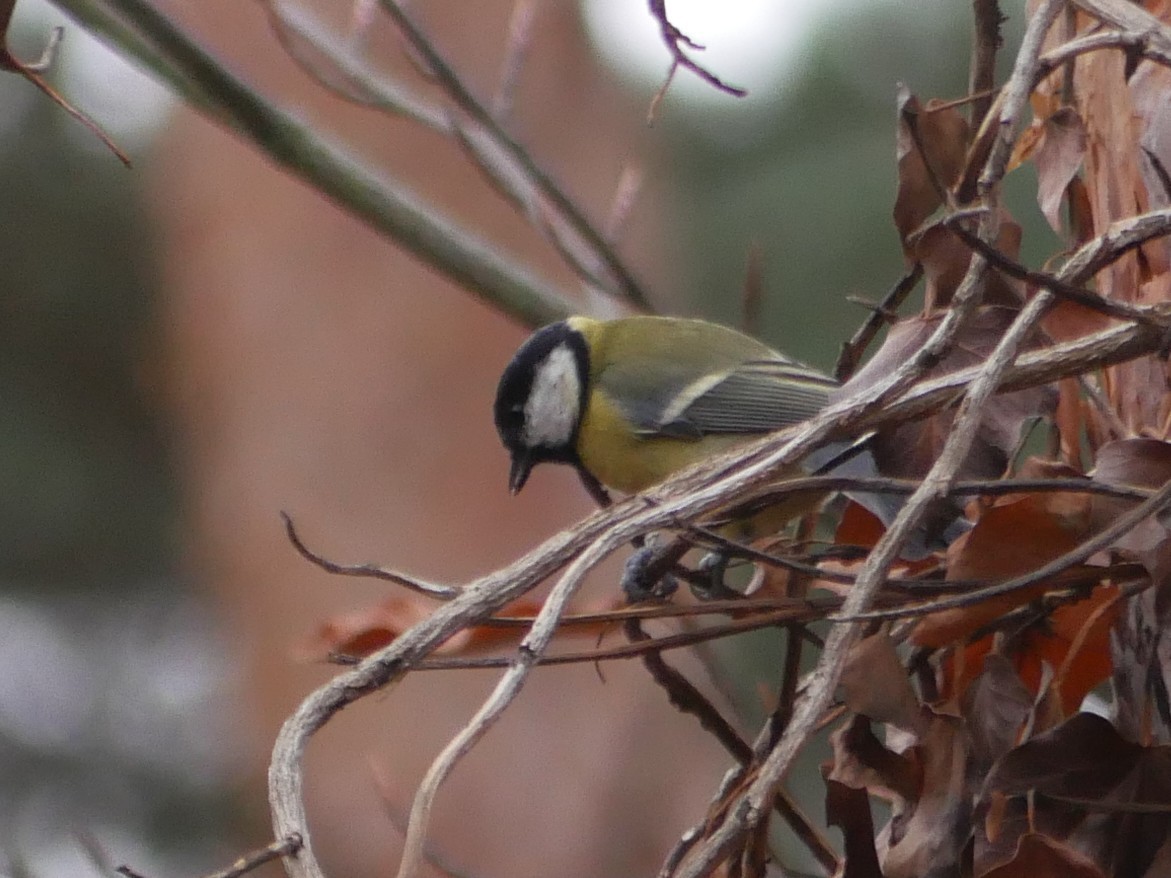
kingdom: Animalia
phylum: Chordata
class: Aves
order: Passeriformes
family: Paridae
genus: Parus
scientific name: Parus major
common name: Great tit
